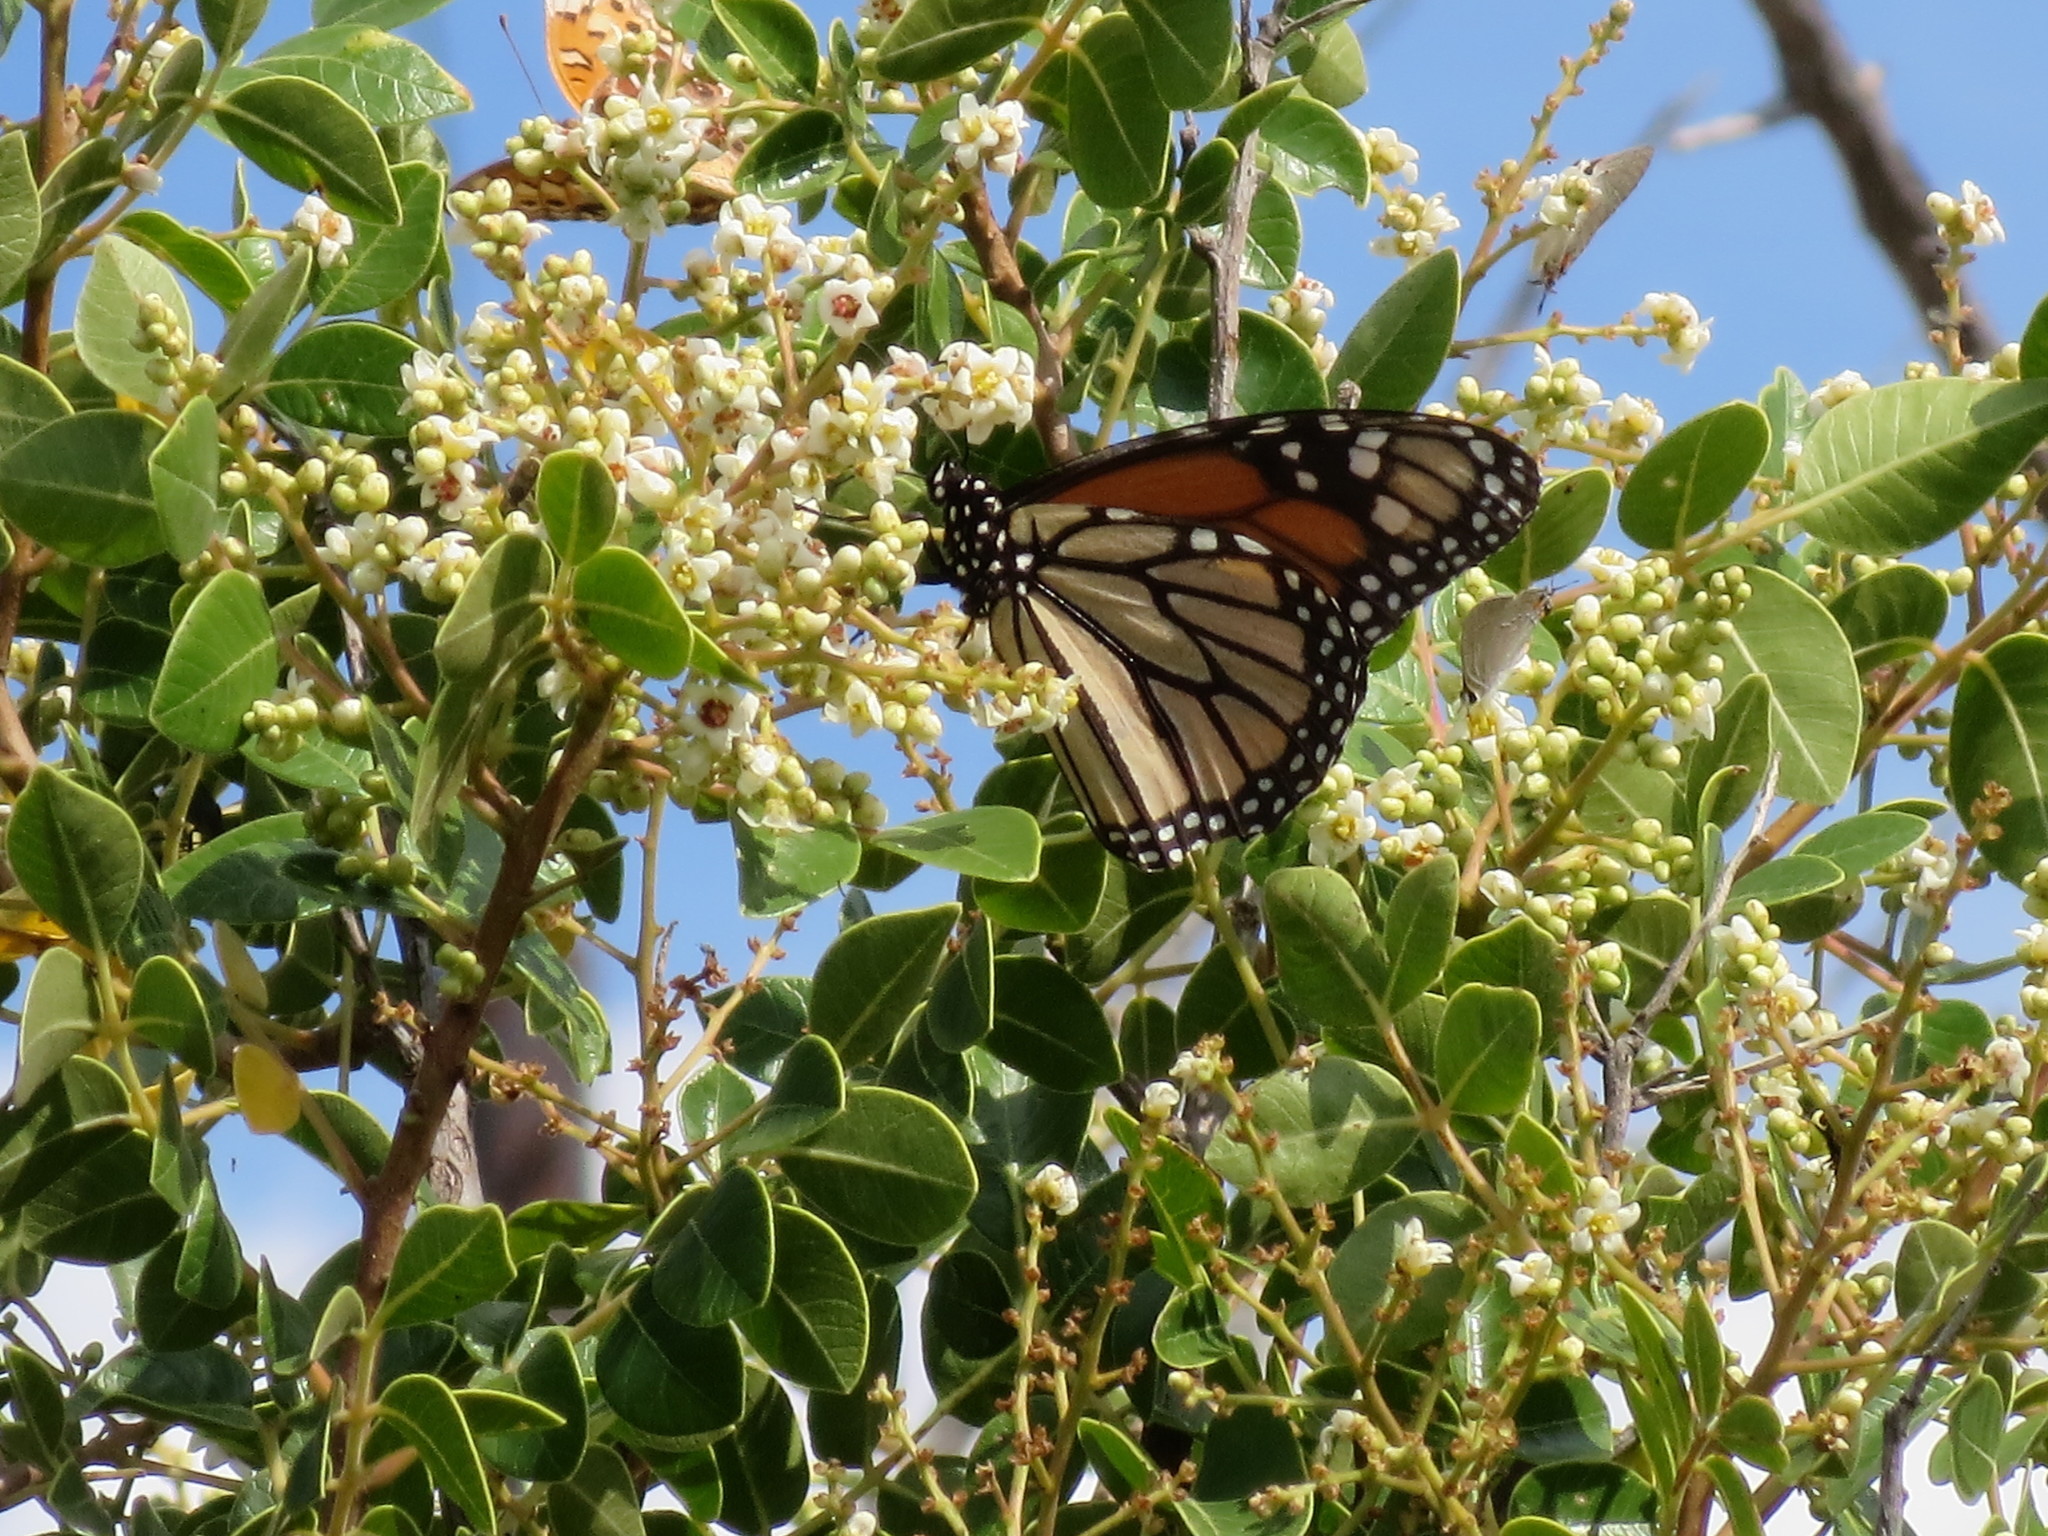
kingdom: Plantae
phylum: Tracheophyta
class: Magnoliopsida
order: Sapindales
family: Anacardiaceae
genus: Rhus
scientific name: Rhus virens
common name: Evergreen sumac
